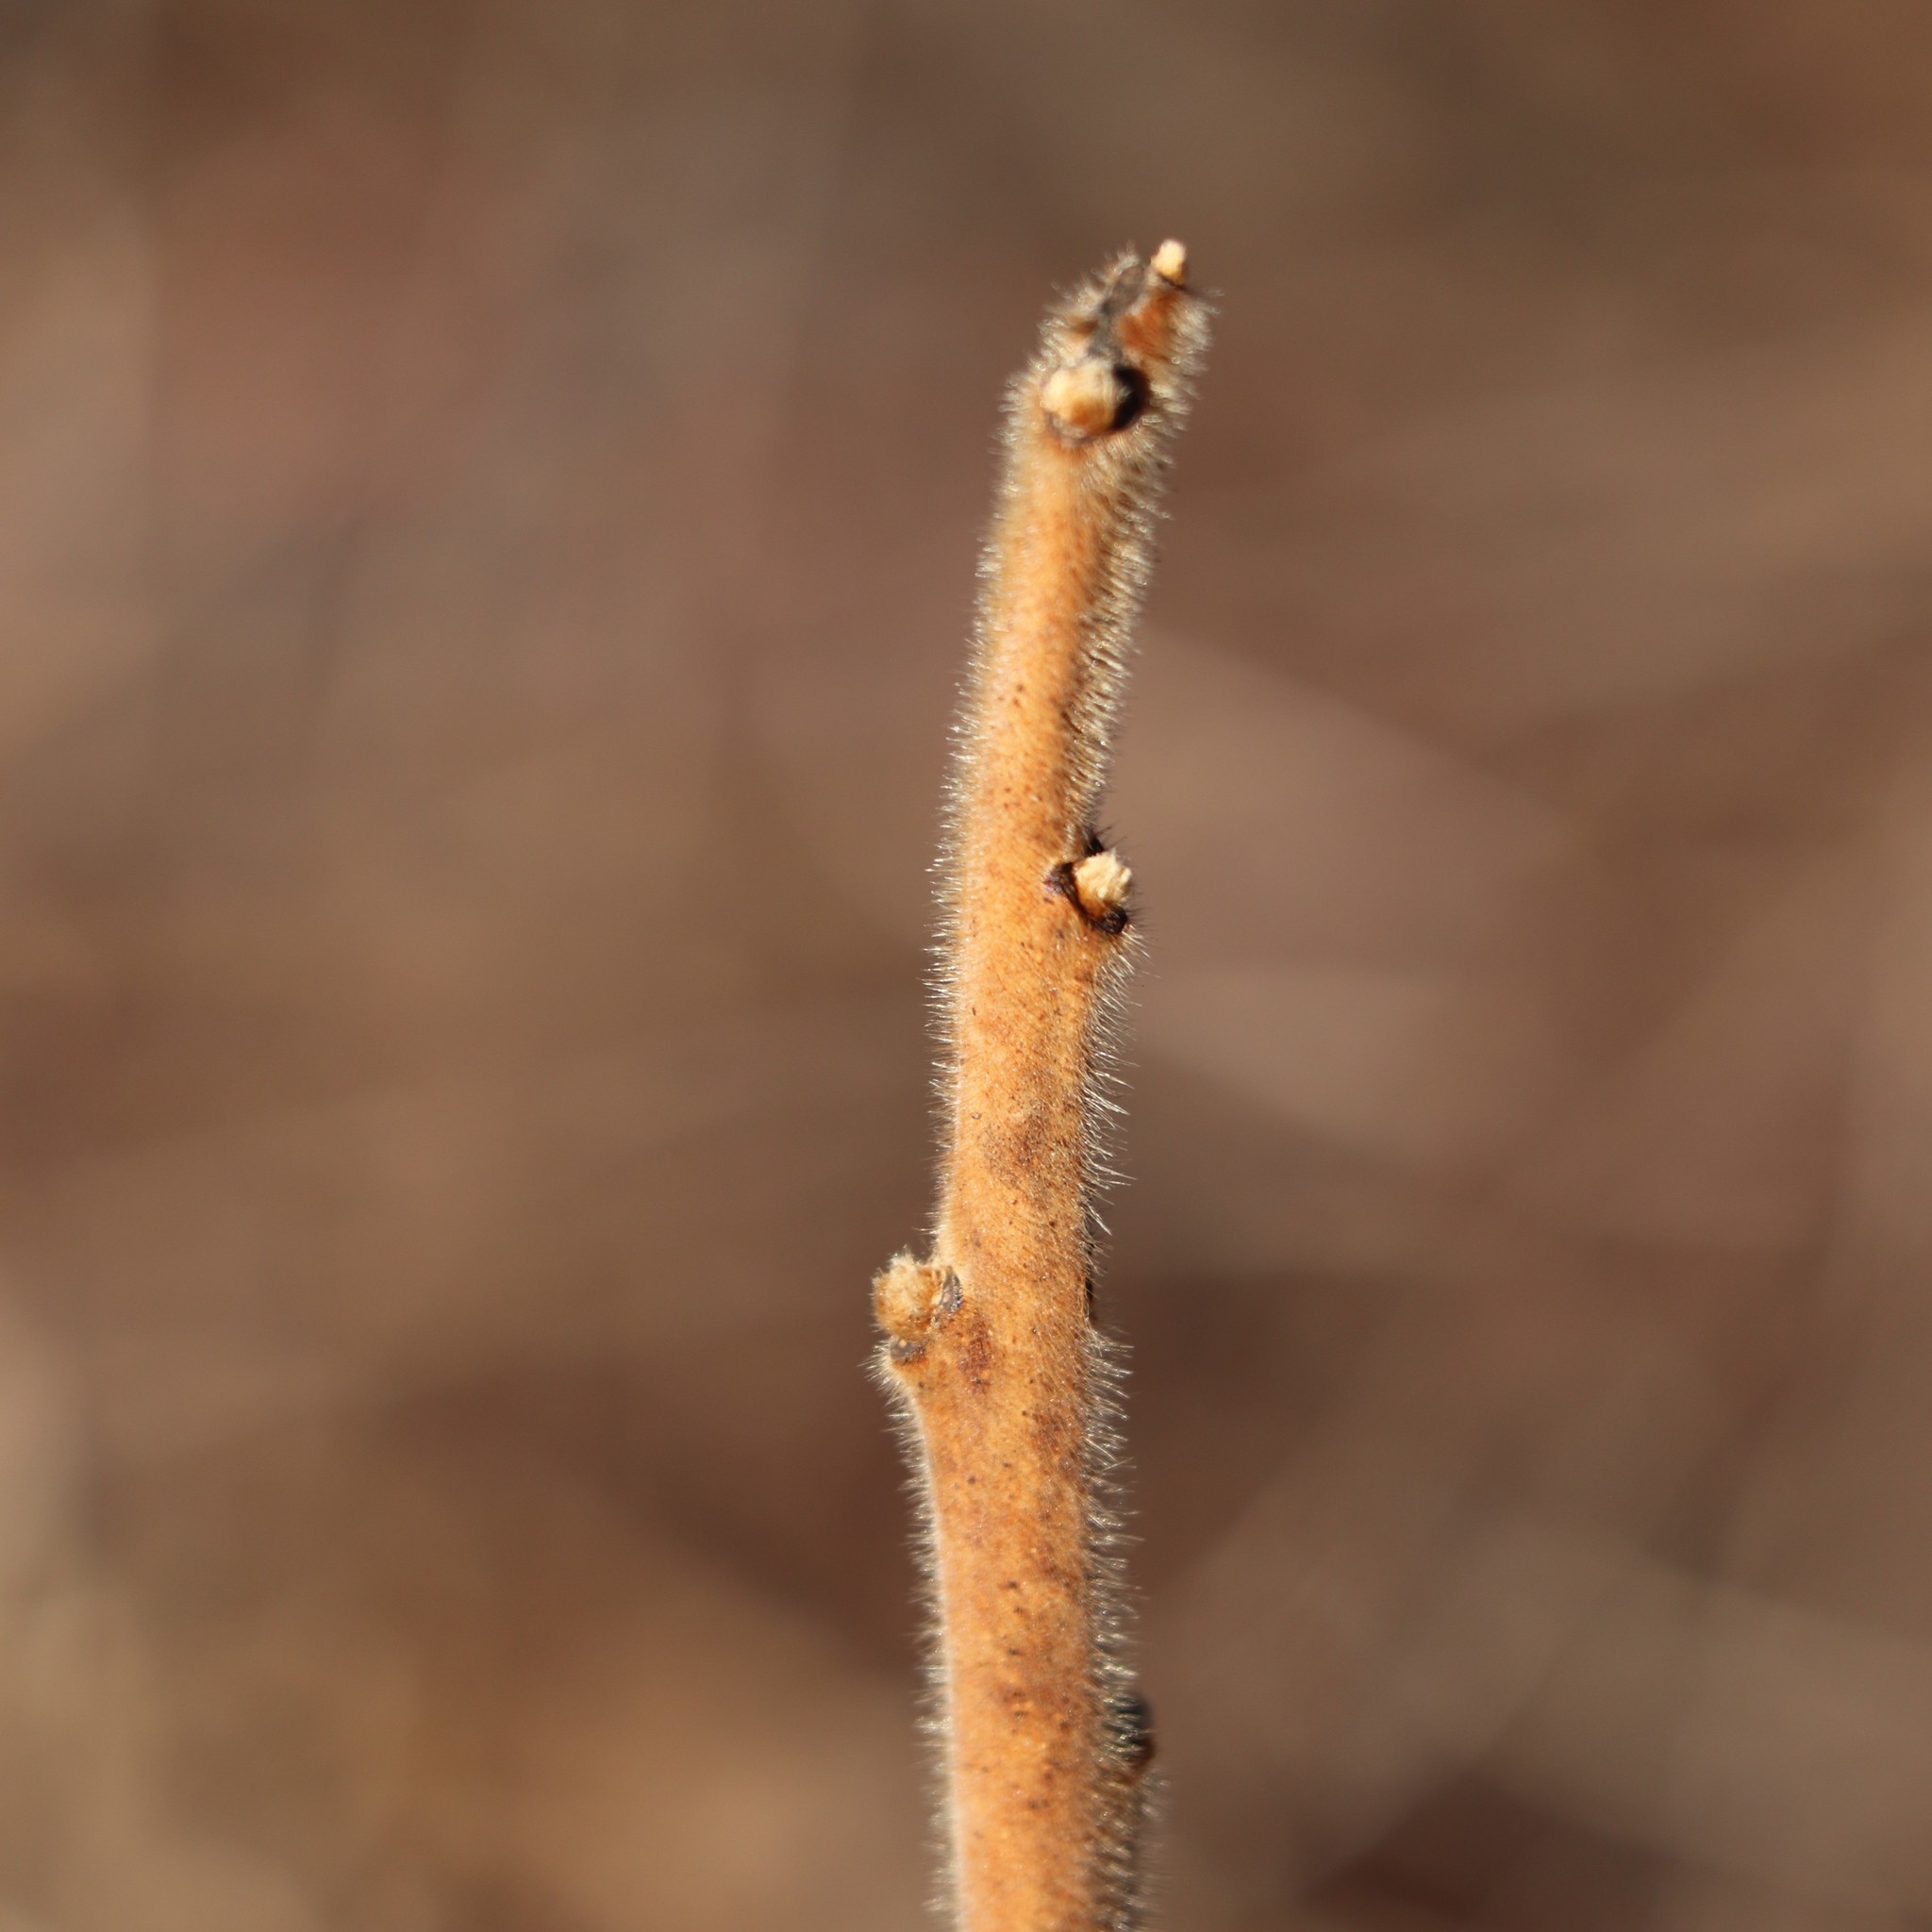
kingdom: Plantae
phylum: Tracheophyta
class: Magnoliopsida
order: Sapindales
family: Anacardiaceae
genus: Rhus
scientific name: Rhus typhina
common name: Staghorn sumac
